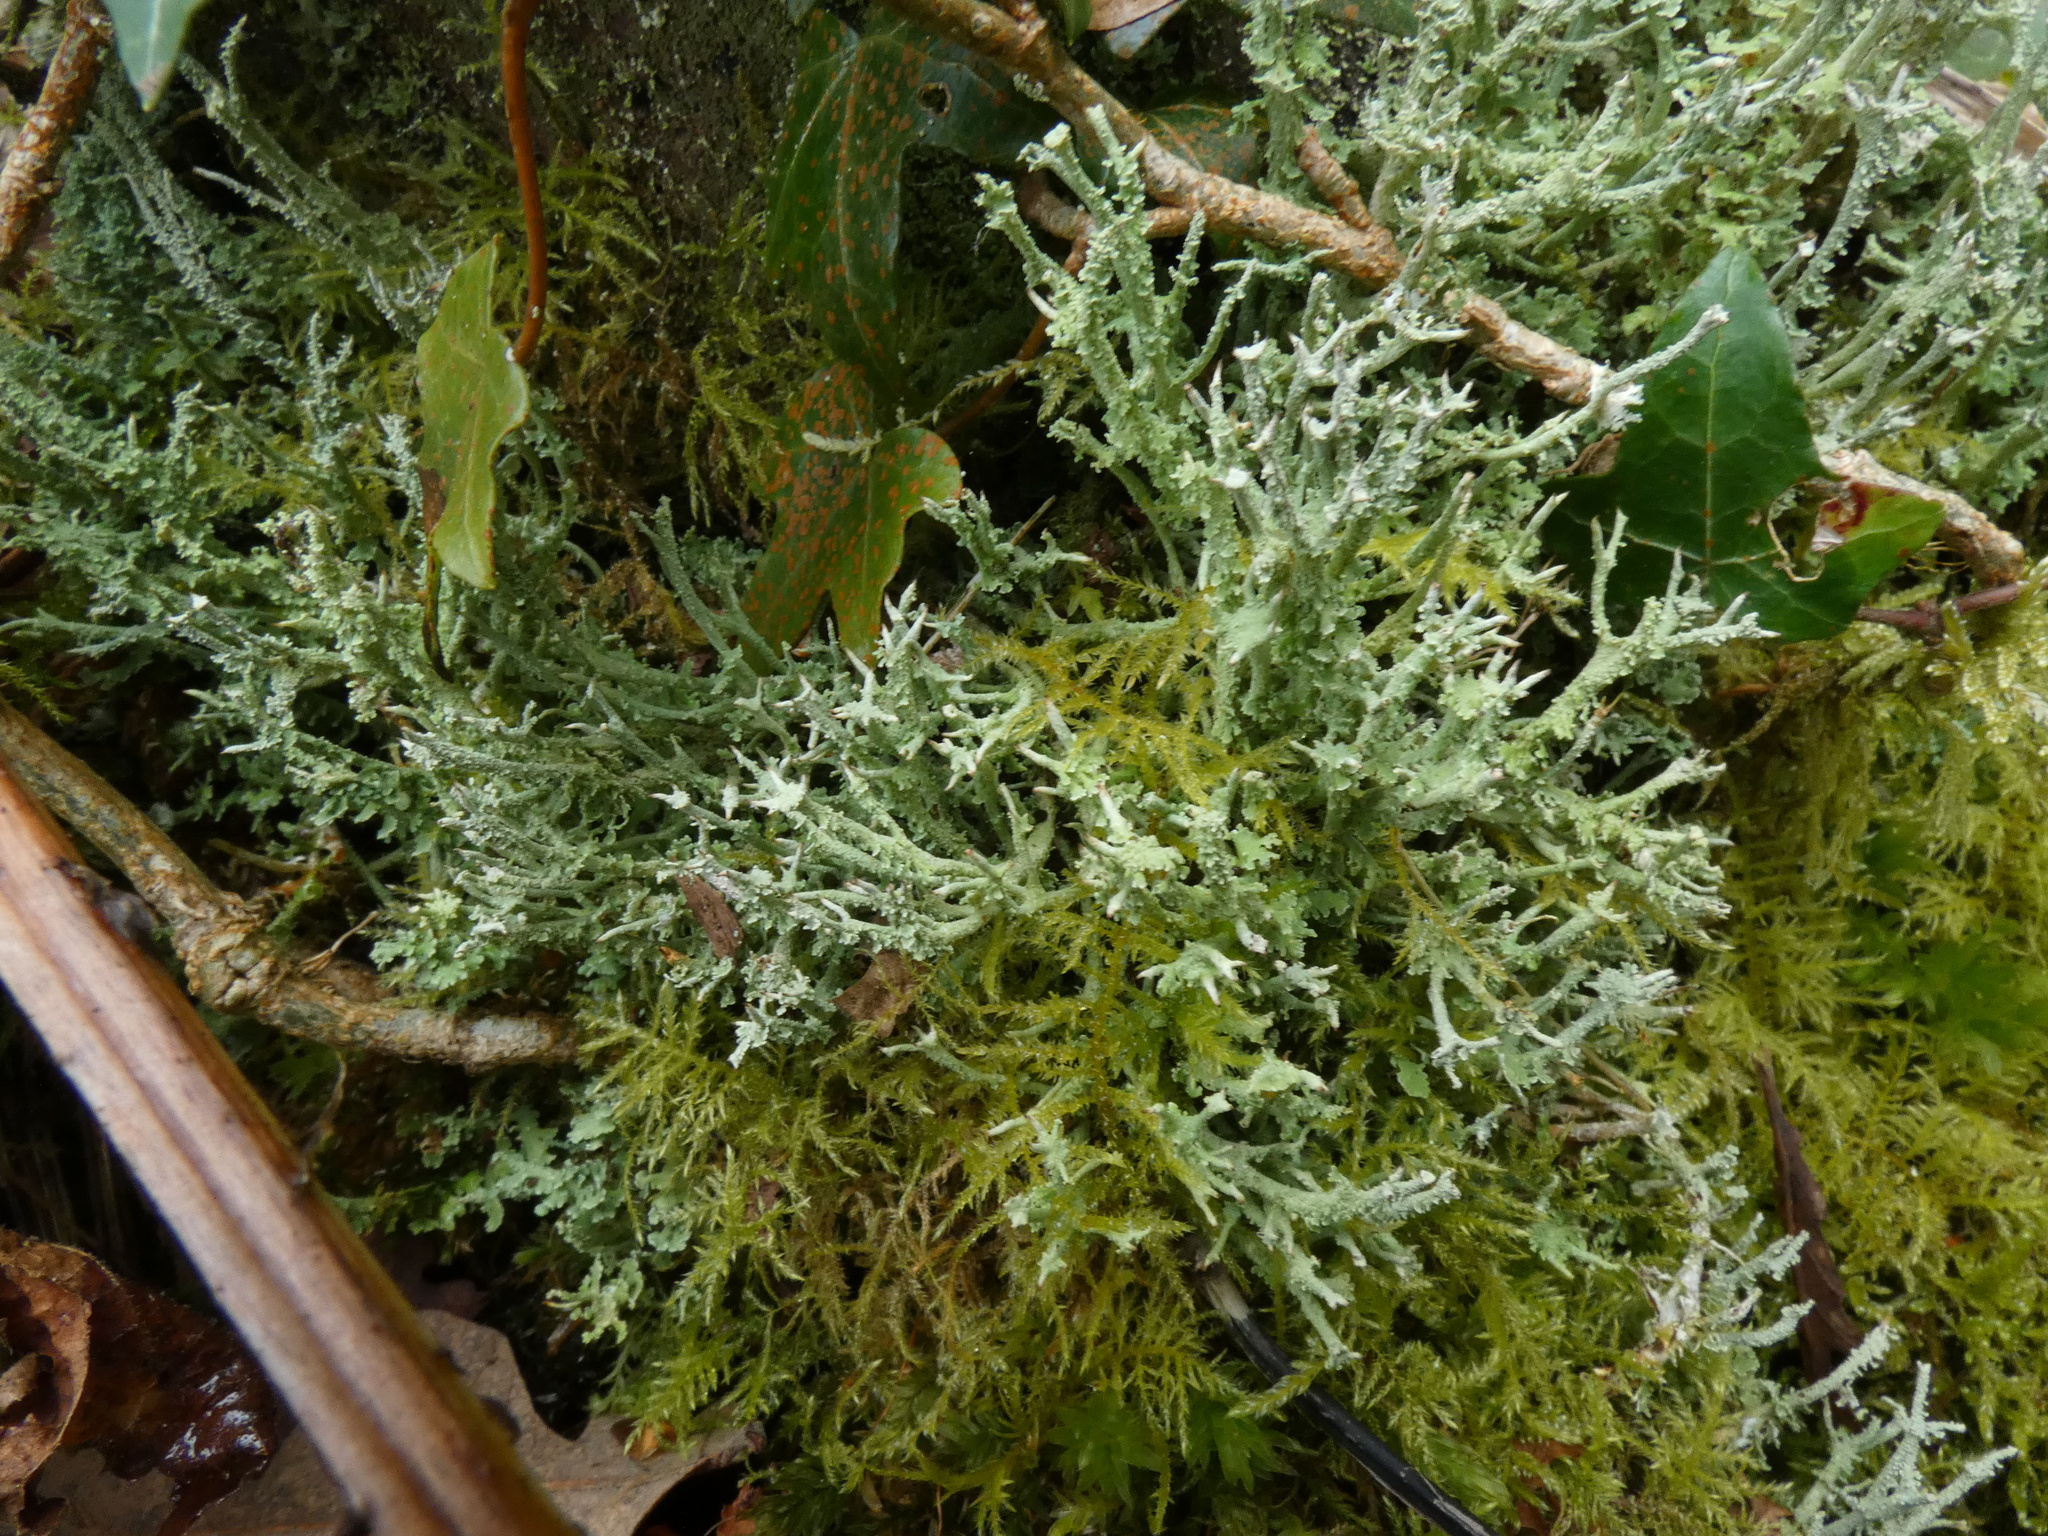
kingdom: Fungi
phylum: Ascomycota
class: Lecanoromycetes
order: Lecanorales
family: Cladoniaceae
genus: Cladonia
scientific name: Cladonia furcata
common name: Many-forked cladonia
